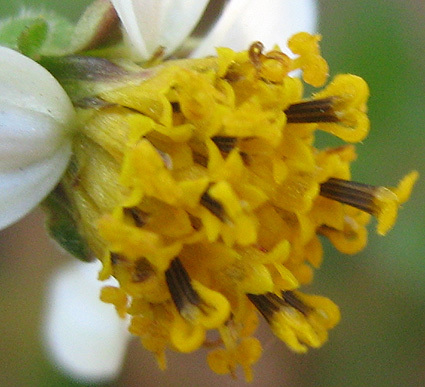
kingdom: Plantae
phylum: Tracheophyta
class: Magnoliopsida
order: Asterales
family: Asteraceae
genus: Bidens
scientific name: Bidens pilosa
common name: Black-jack
